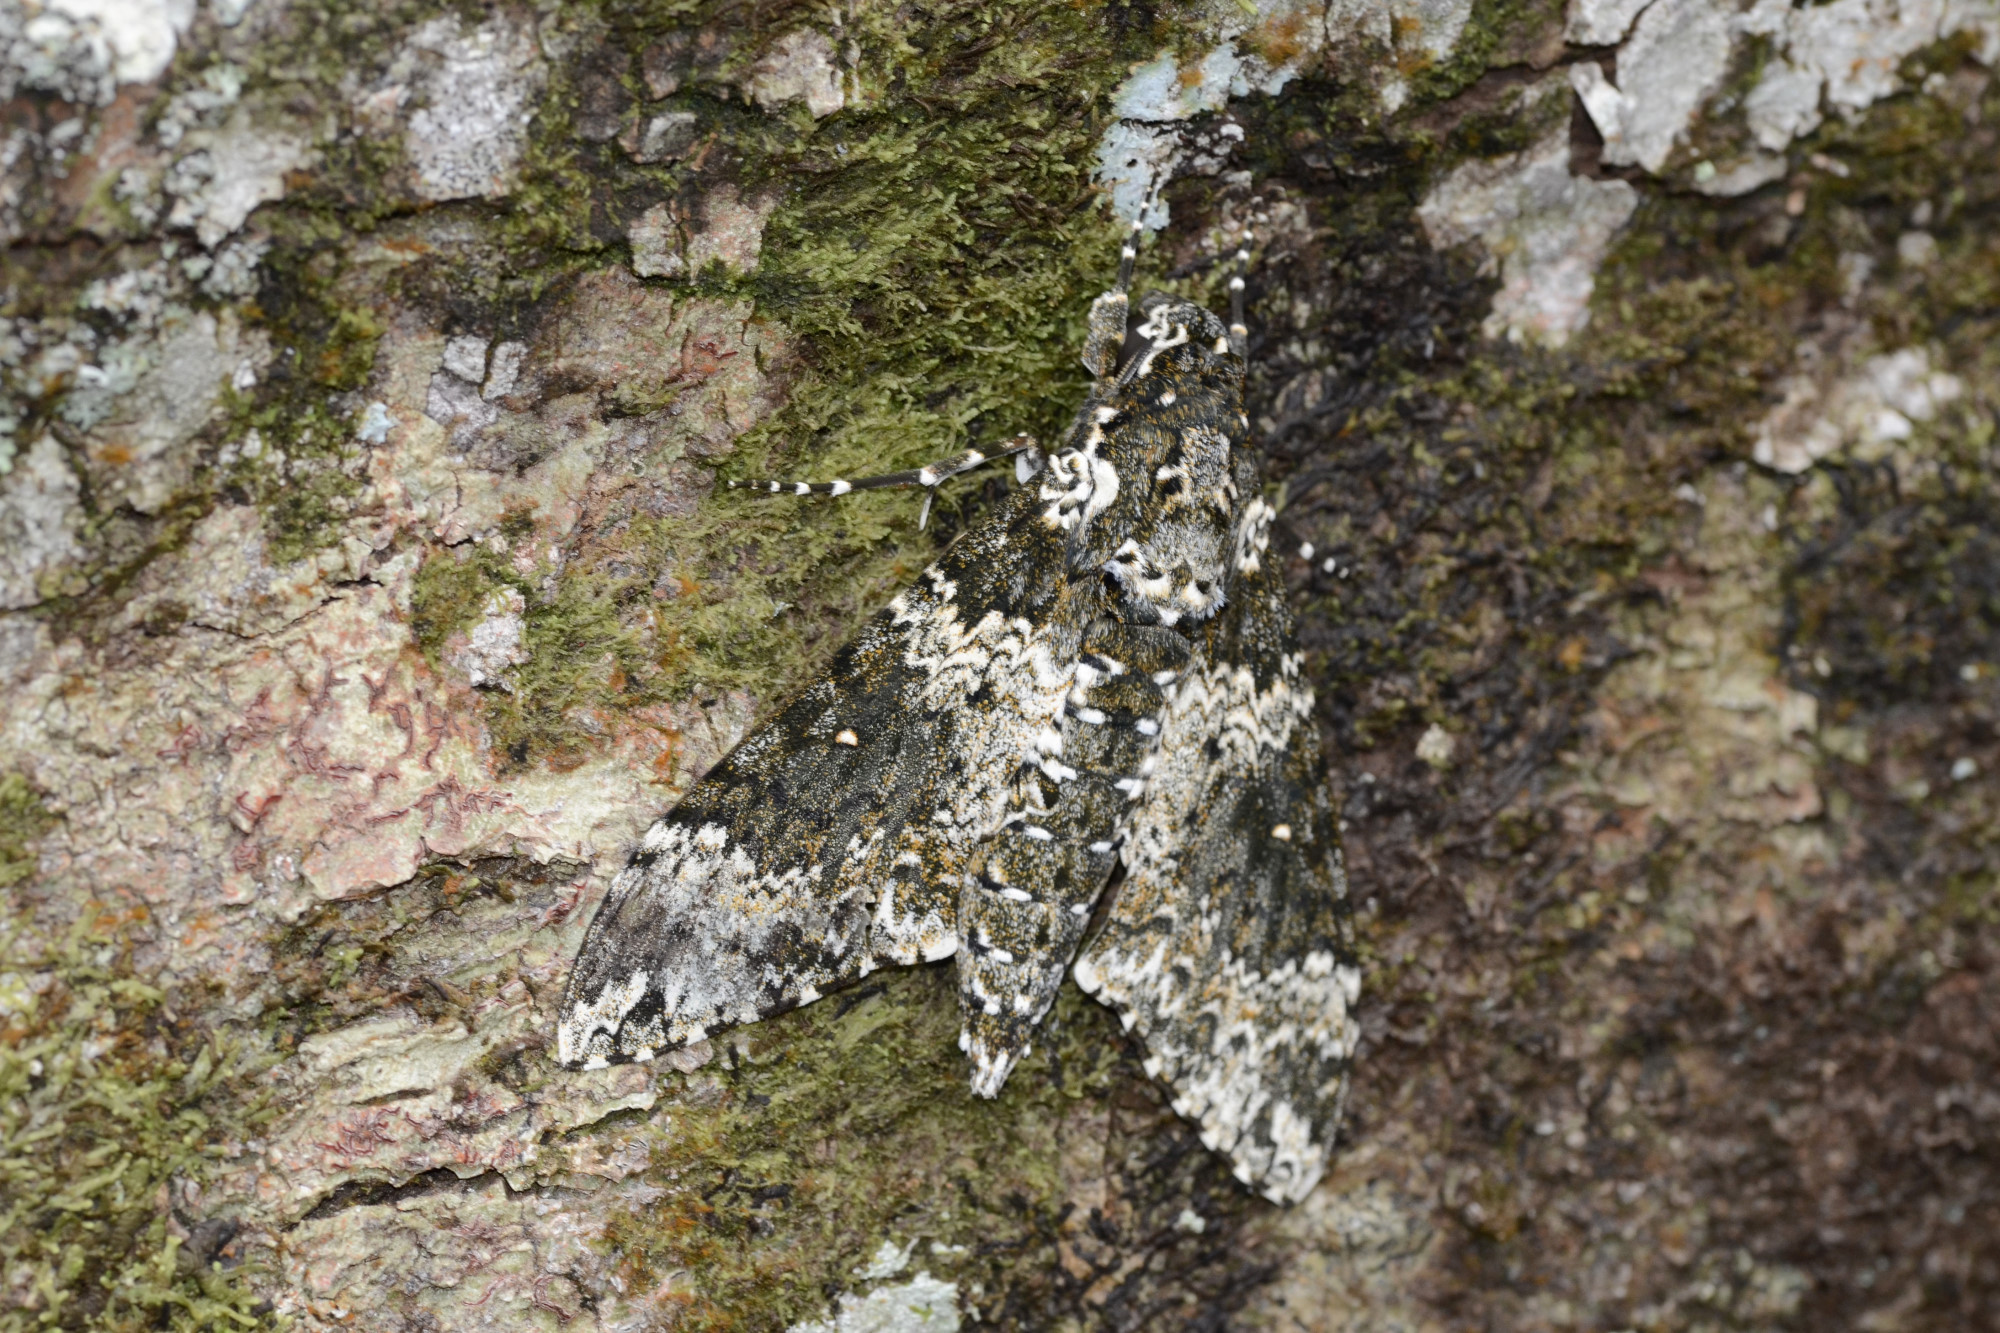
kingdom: Animalia
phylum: Arthropoda
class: Insecta
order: Lepidoptera
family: Sphingidae
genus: Manduca
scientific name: Manduca rustica
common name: Rustic sphinx
